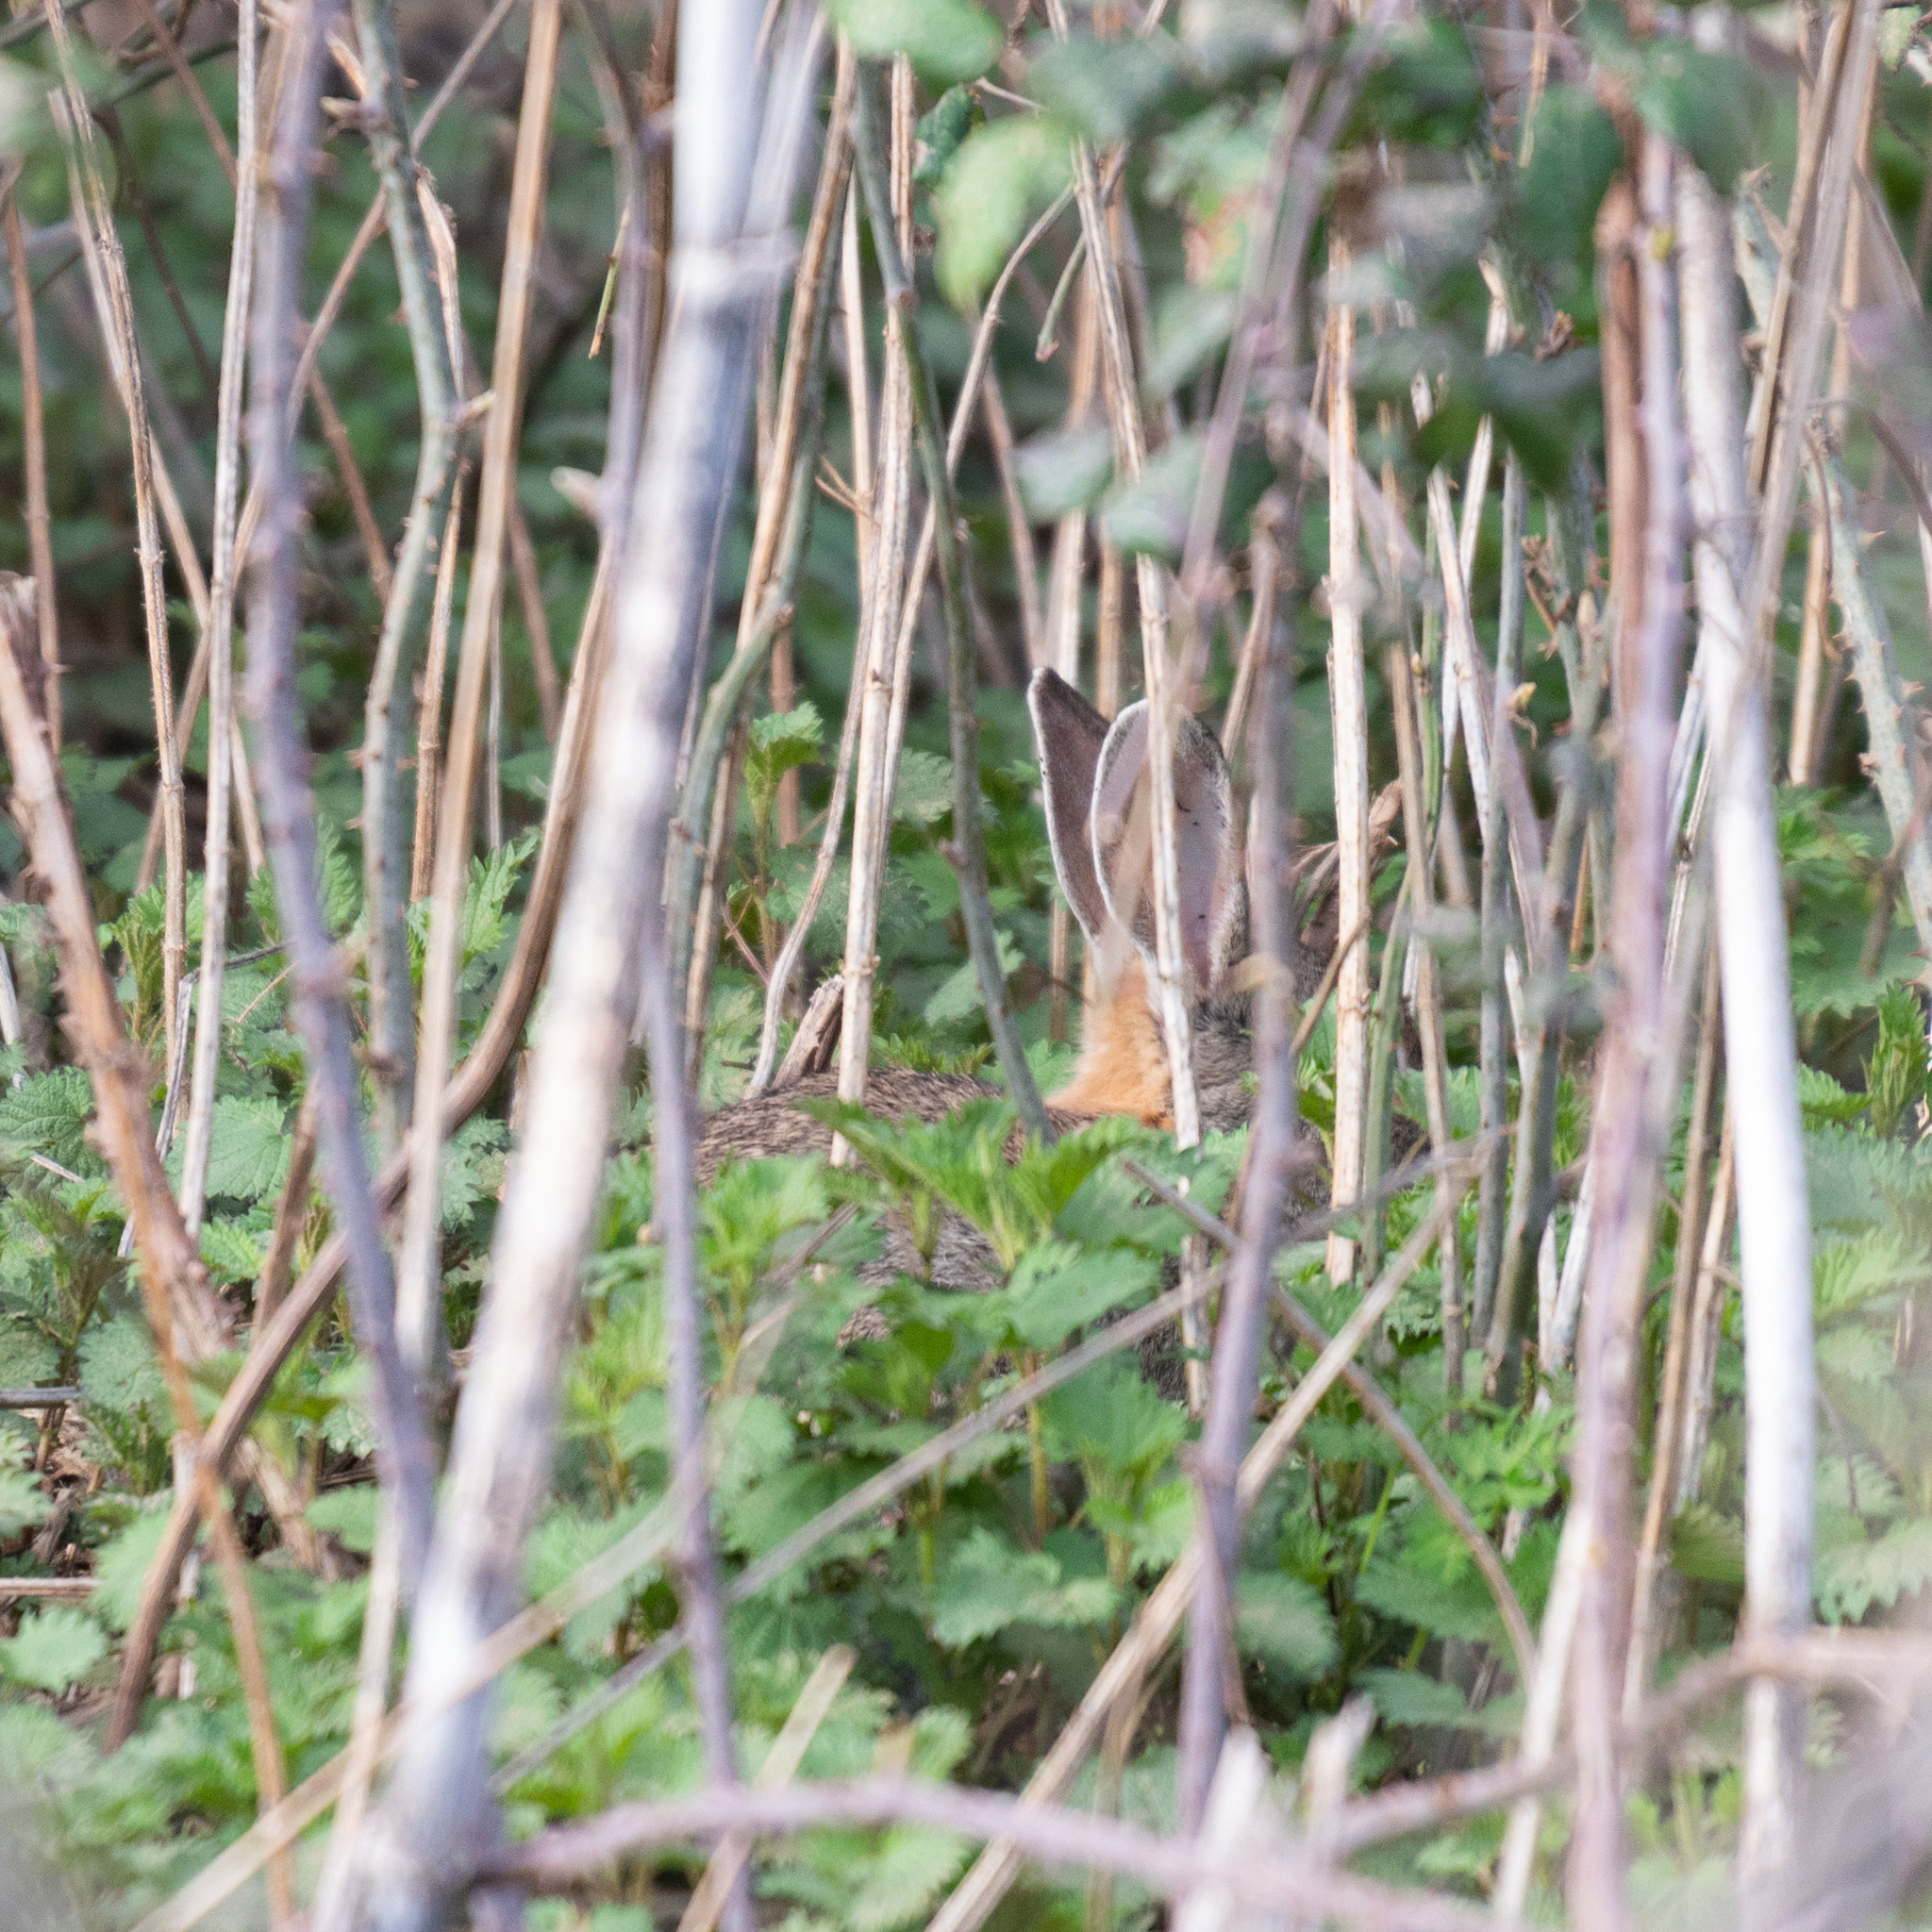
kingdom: Animalia
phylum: Chordata
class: Mammalia
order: Lagomorpha
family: Leporidae
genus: Oryctolagus
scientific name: Oryctolagus cuniculus
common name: European rabbit
